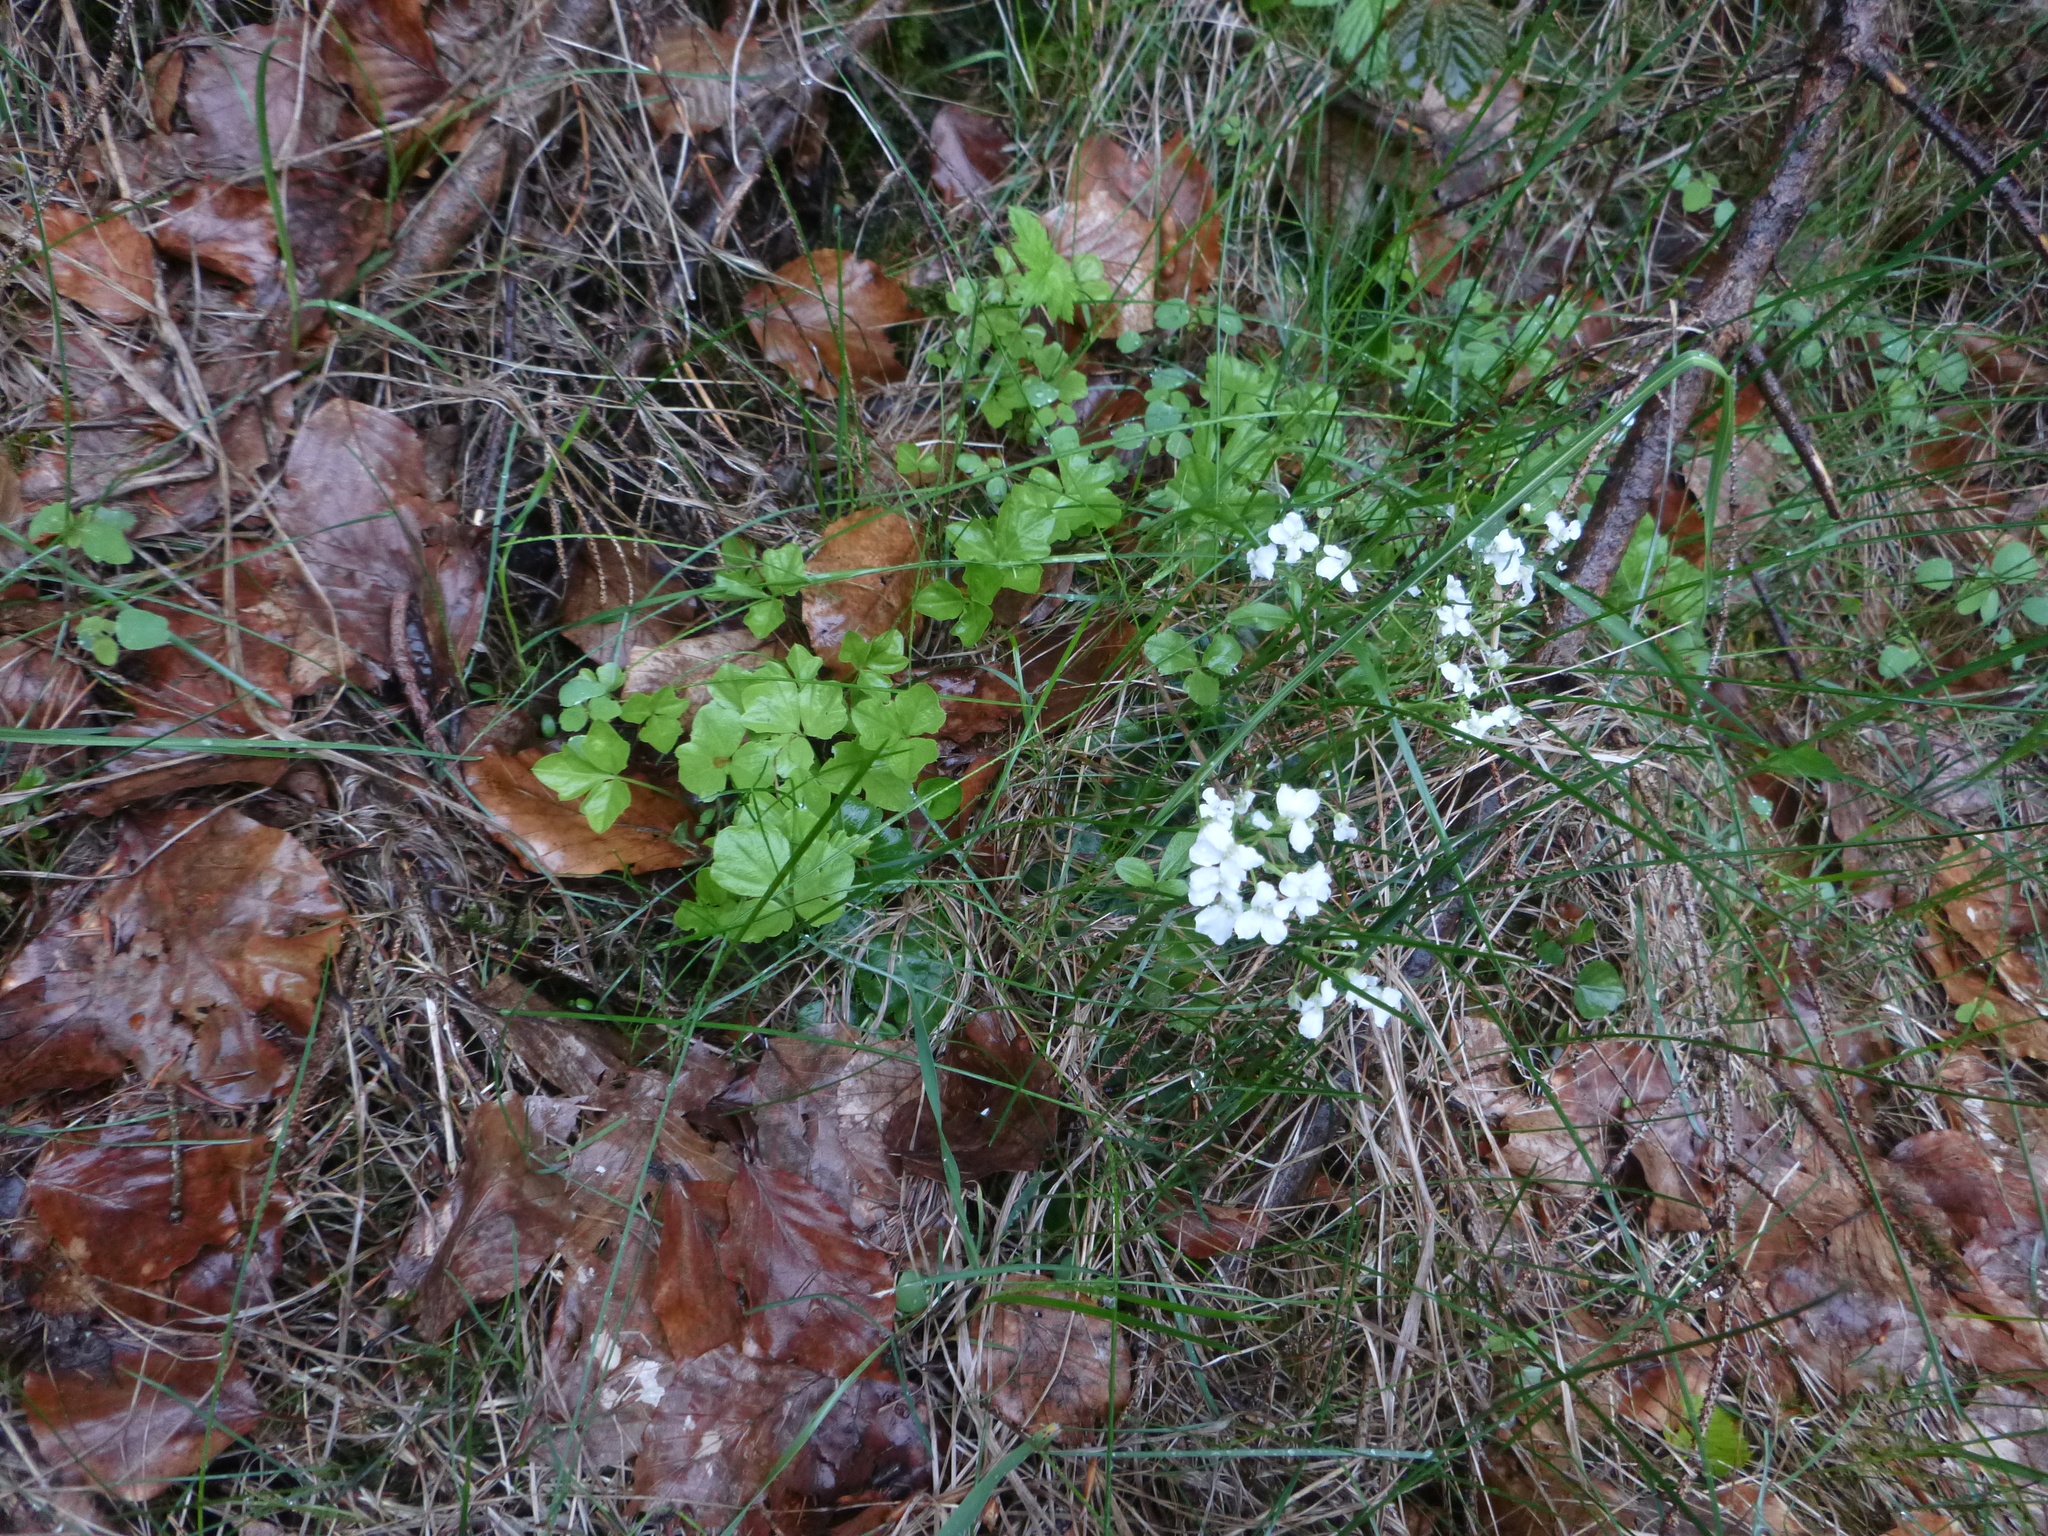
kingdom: Plantae
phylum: Tracheophyta
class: Magnoliopsida
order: Brassicales
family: Brassicaceae
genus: Cardamine
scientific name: Cardamine trifolia
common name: Trefoil cress
